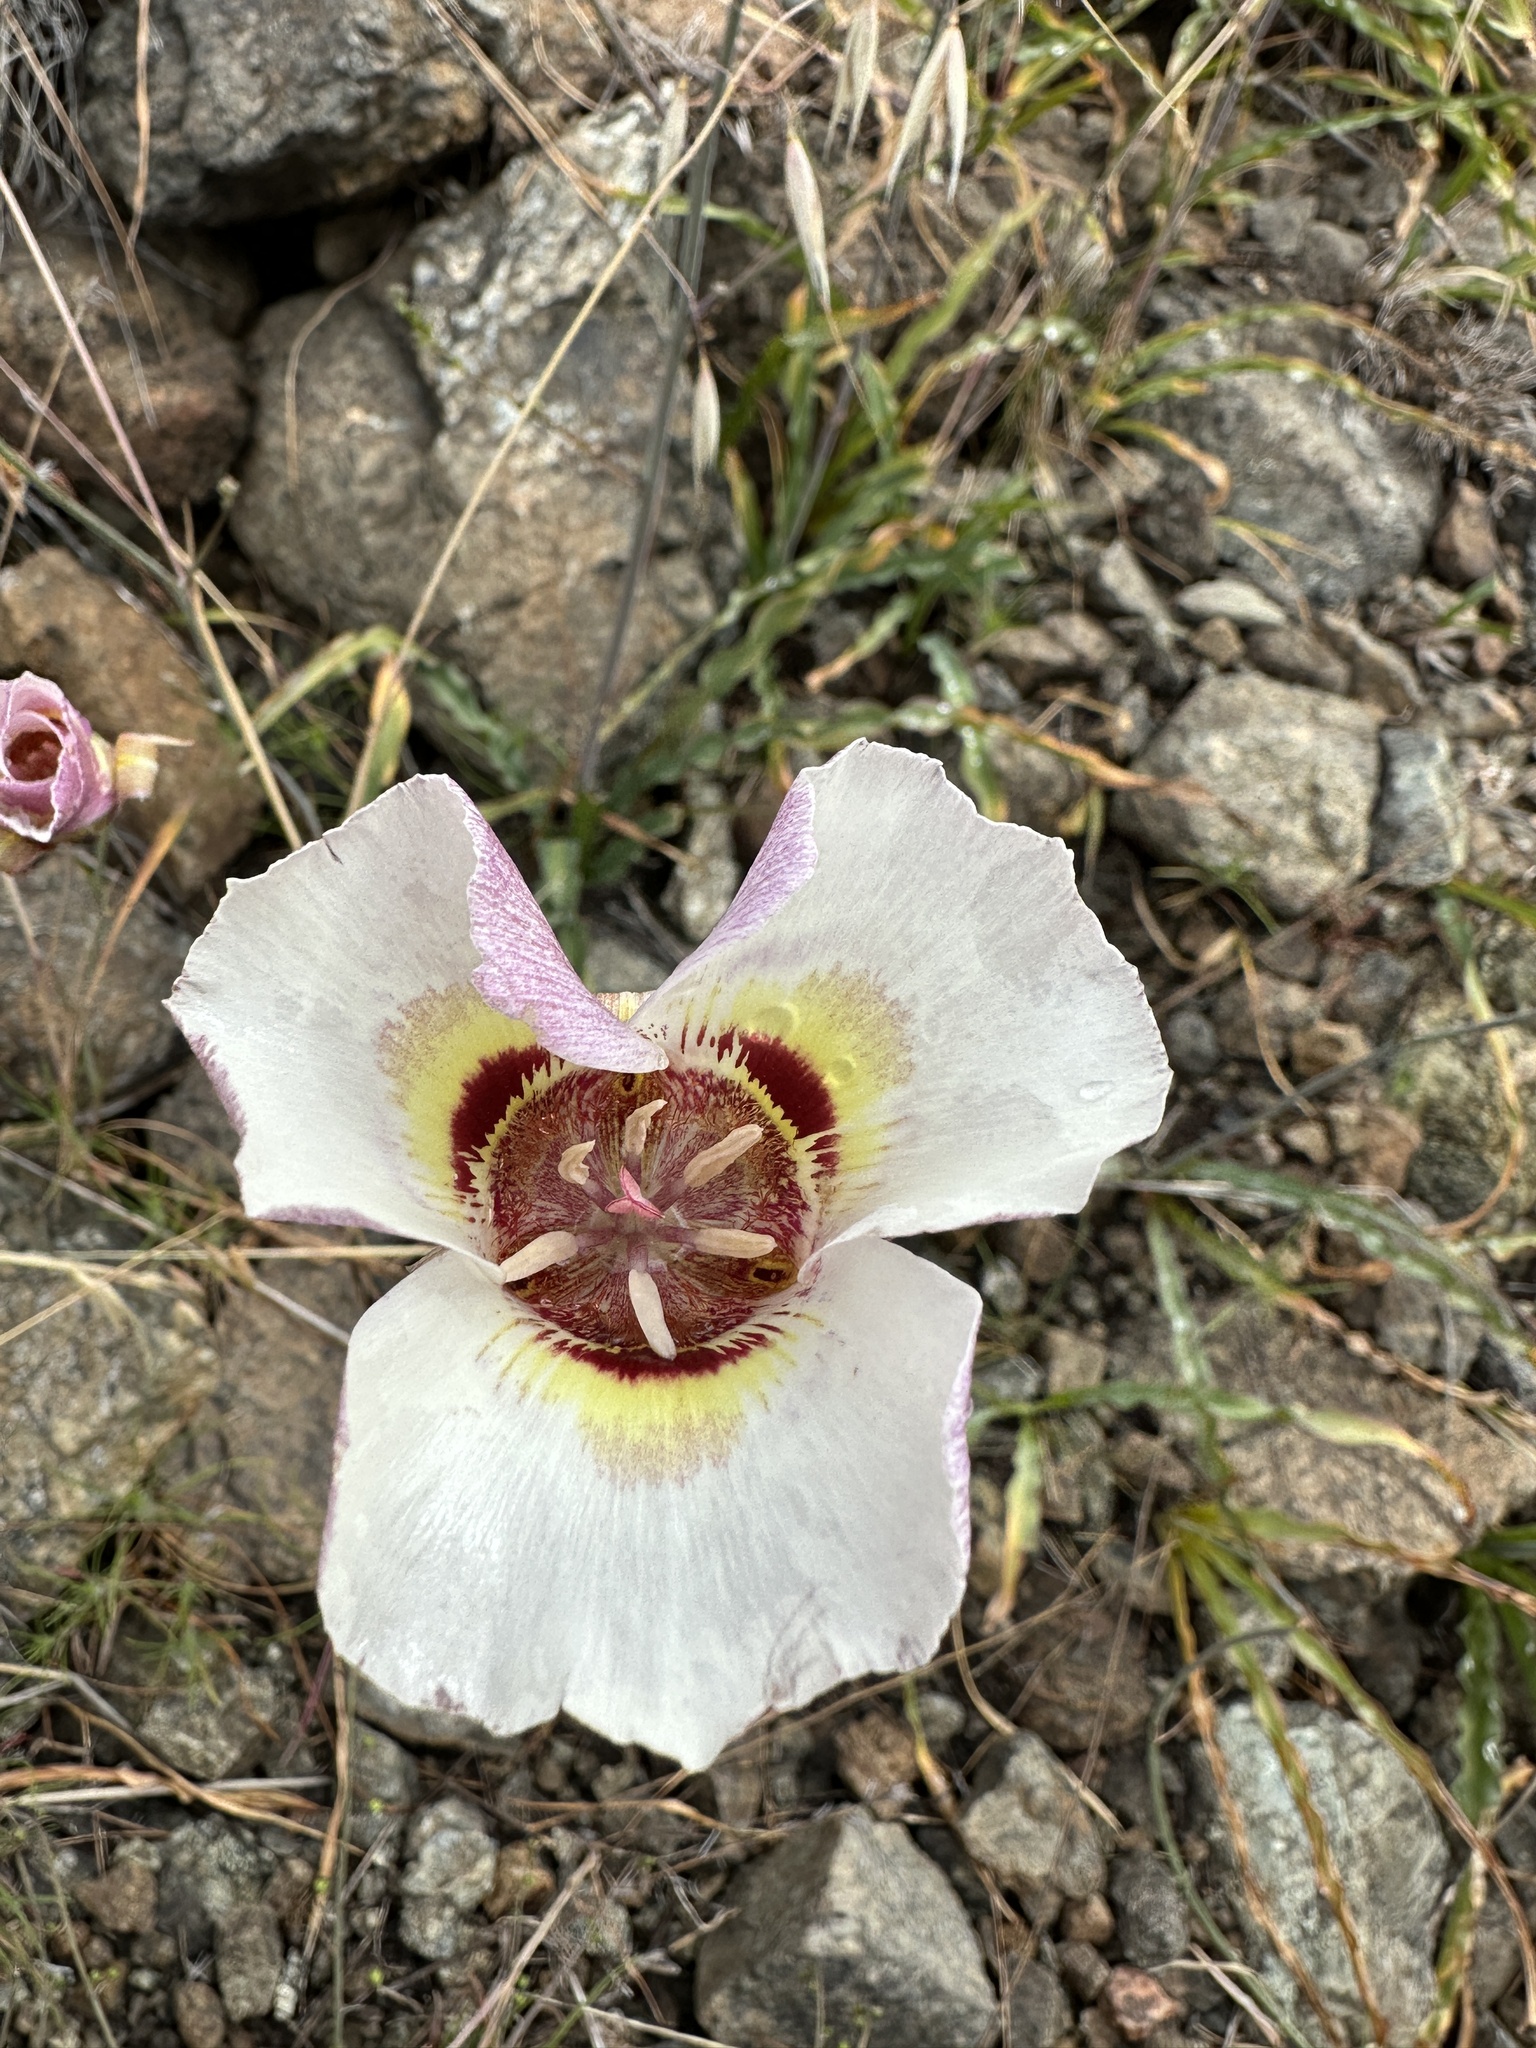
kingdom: Plantae
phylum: Tracheophyta
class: Liliopsida
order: Liliales
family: Liliaceae
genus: Calochortus
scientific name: Calochortus argillosus
